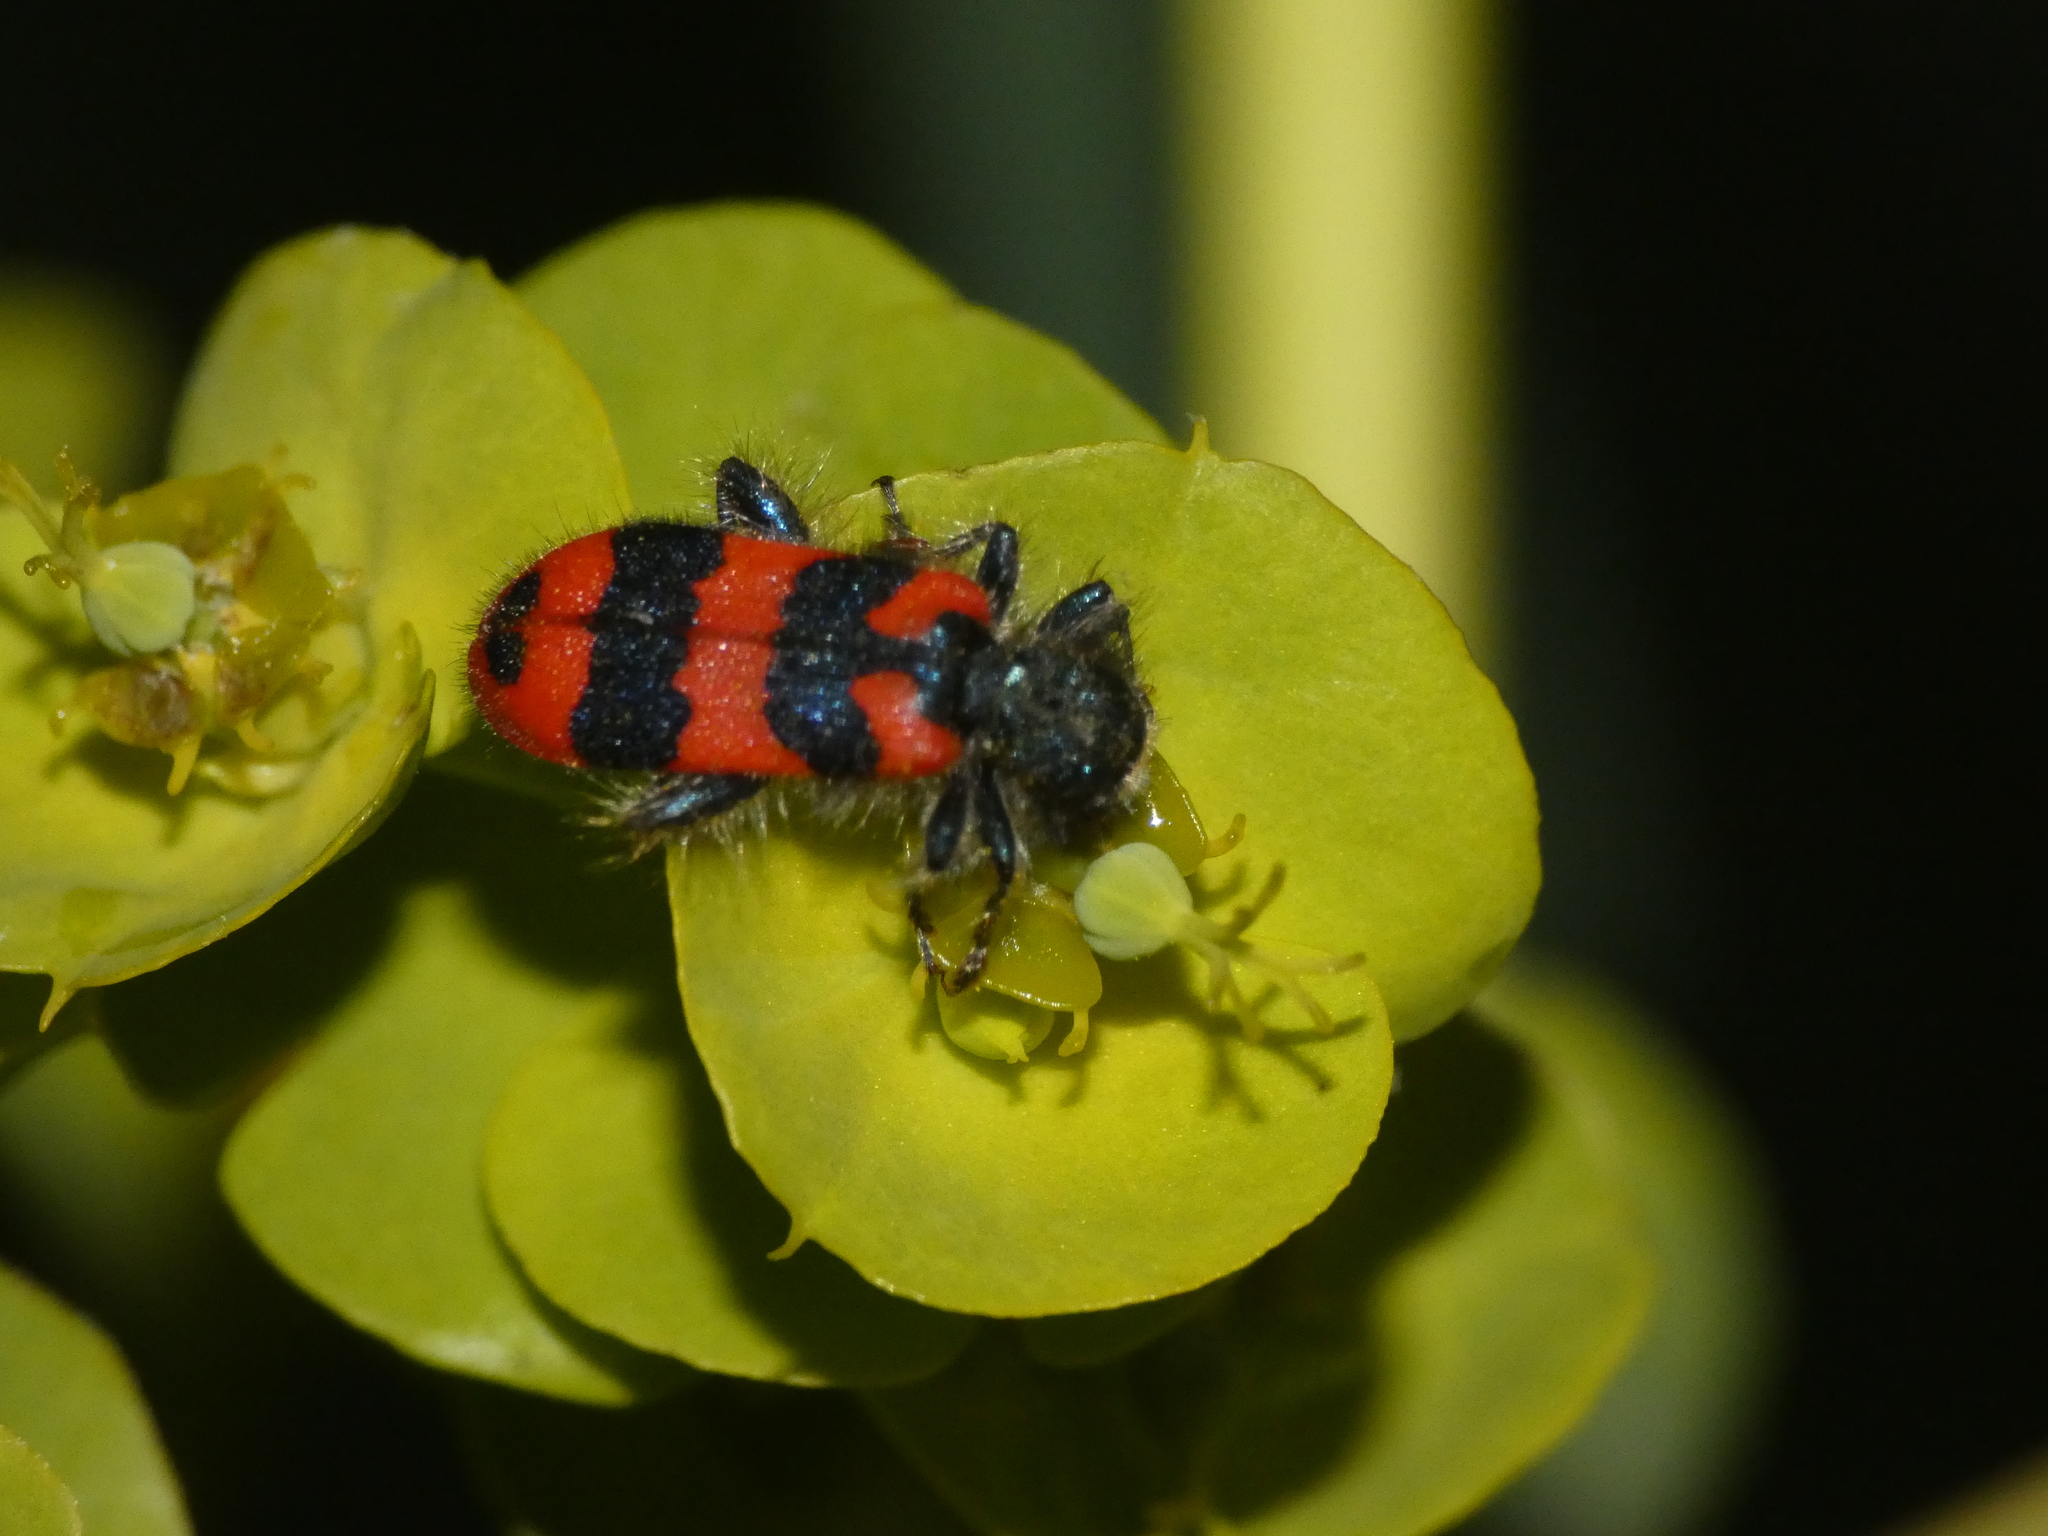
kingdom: Animalia
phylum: Arthropoda
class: Insecta
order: Coleoptera
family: Cleridae
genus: Trichodes
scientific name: Trichodes alvearius
